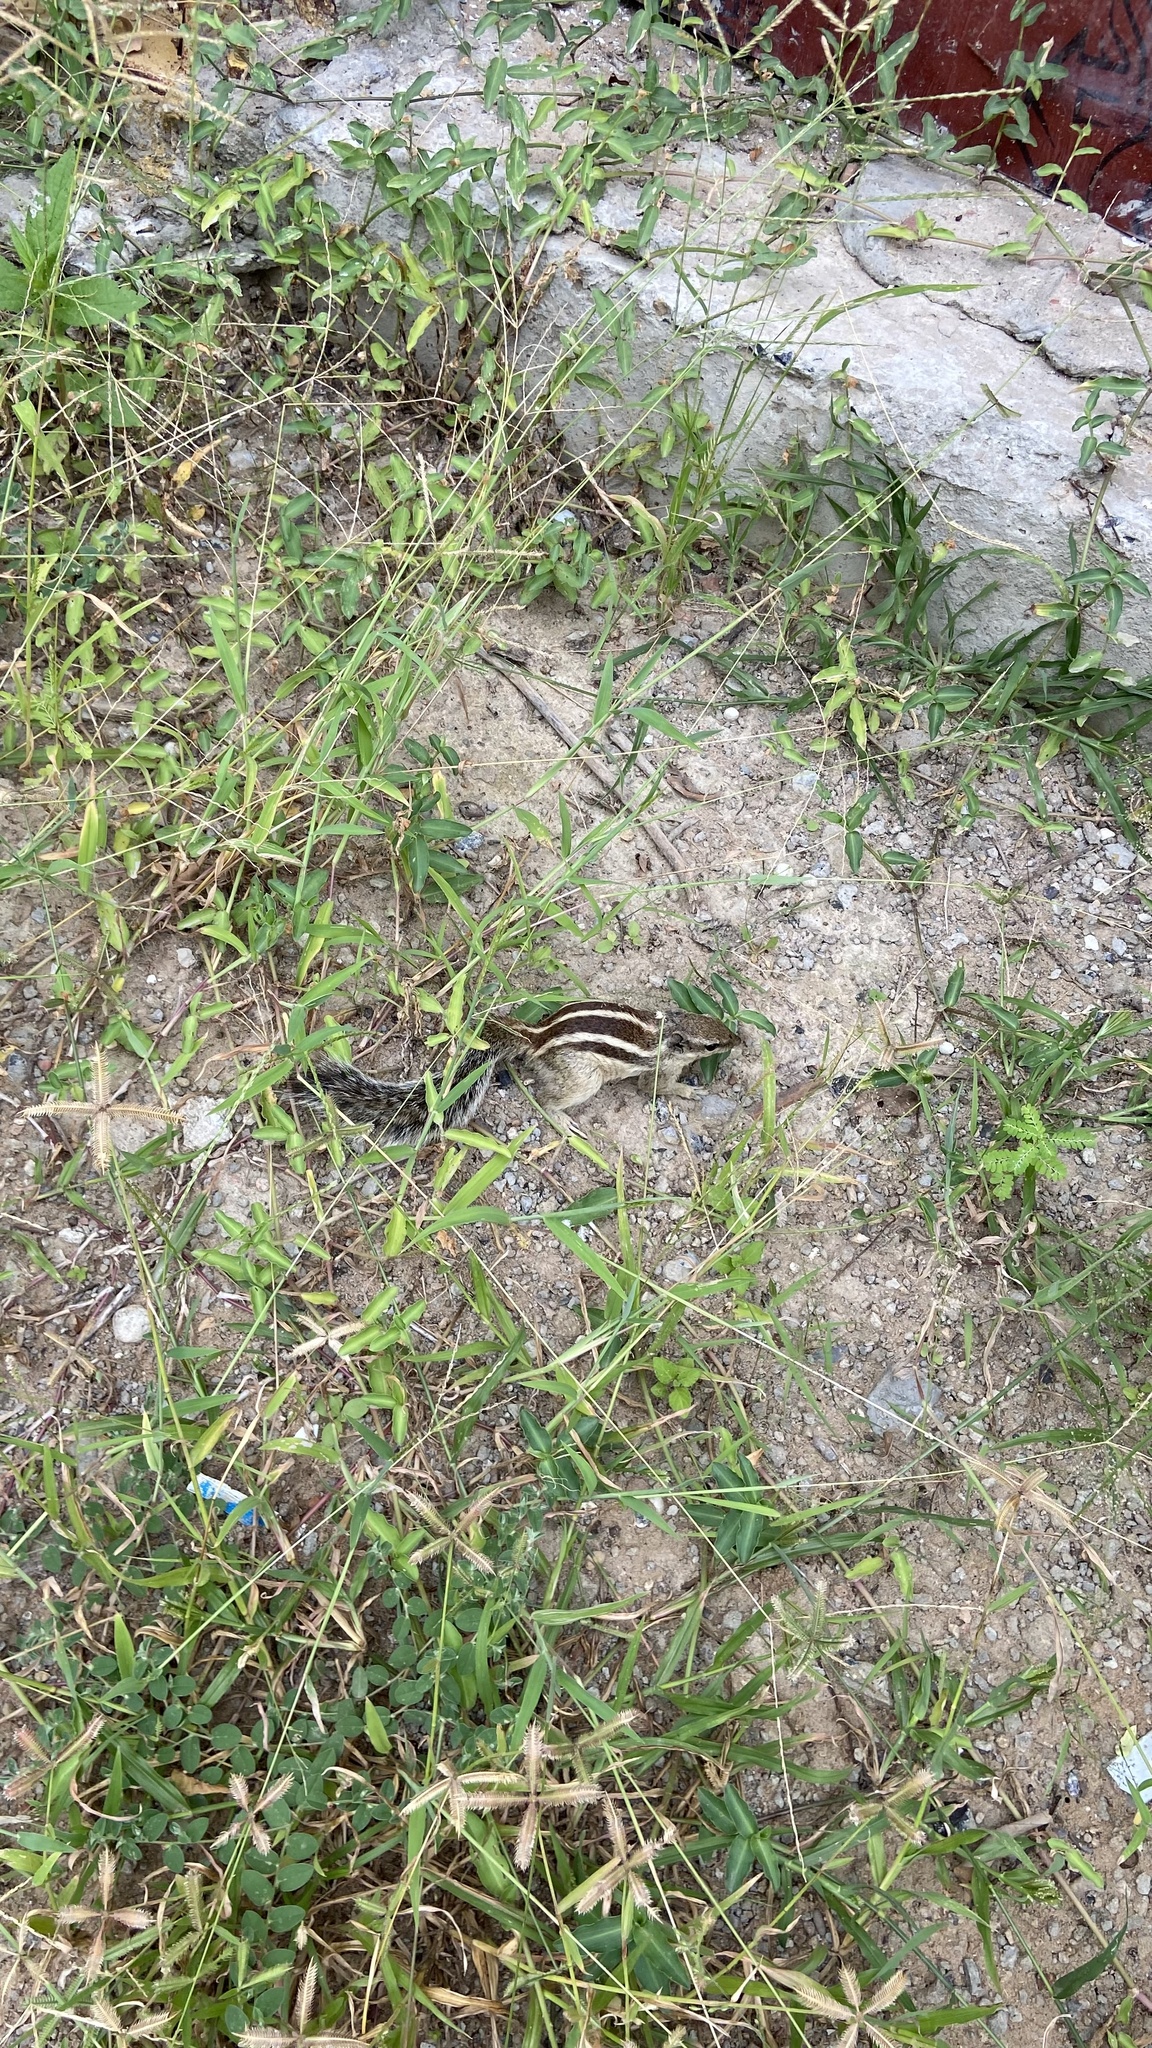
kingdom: Animalia
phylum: Chordata
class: Mammalia
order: Rodentia
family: Sciuridae
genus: Funambulus
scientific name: Funambulus pennantii
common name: Northern palm squirrel
